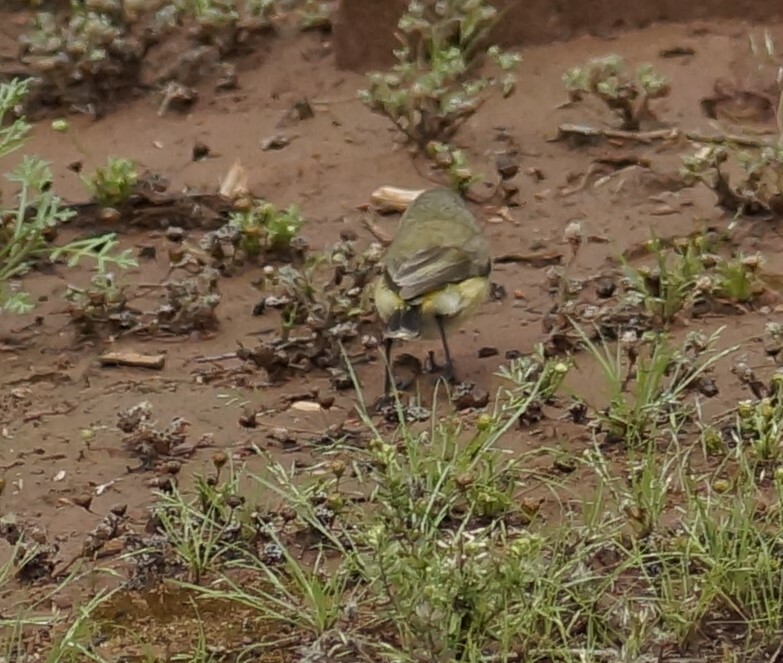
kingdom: Animalia
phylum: Chordata
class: Aves
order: Passeriformes
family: Acanthizidae
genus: Acanthiza
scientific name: Acanthiza chrysorrhoa
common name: Yellow-rumped thornbill
